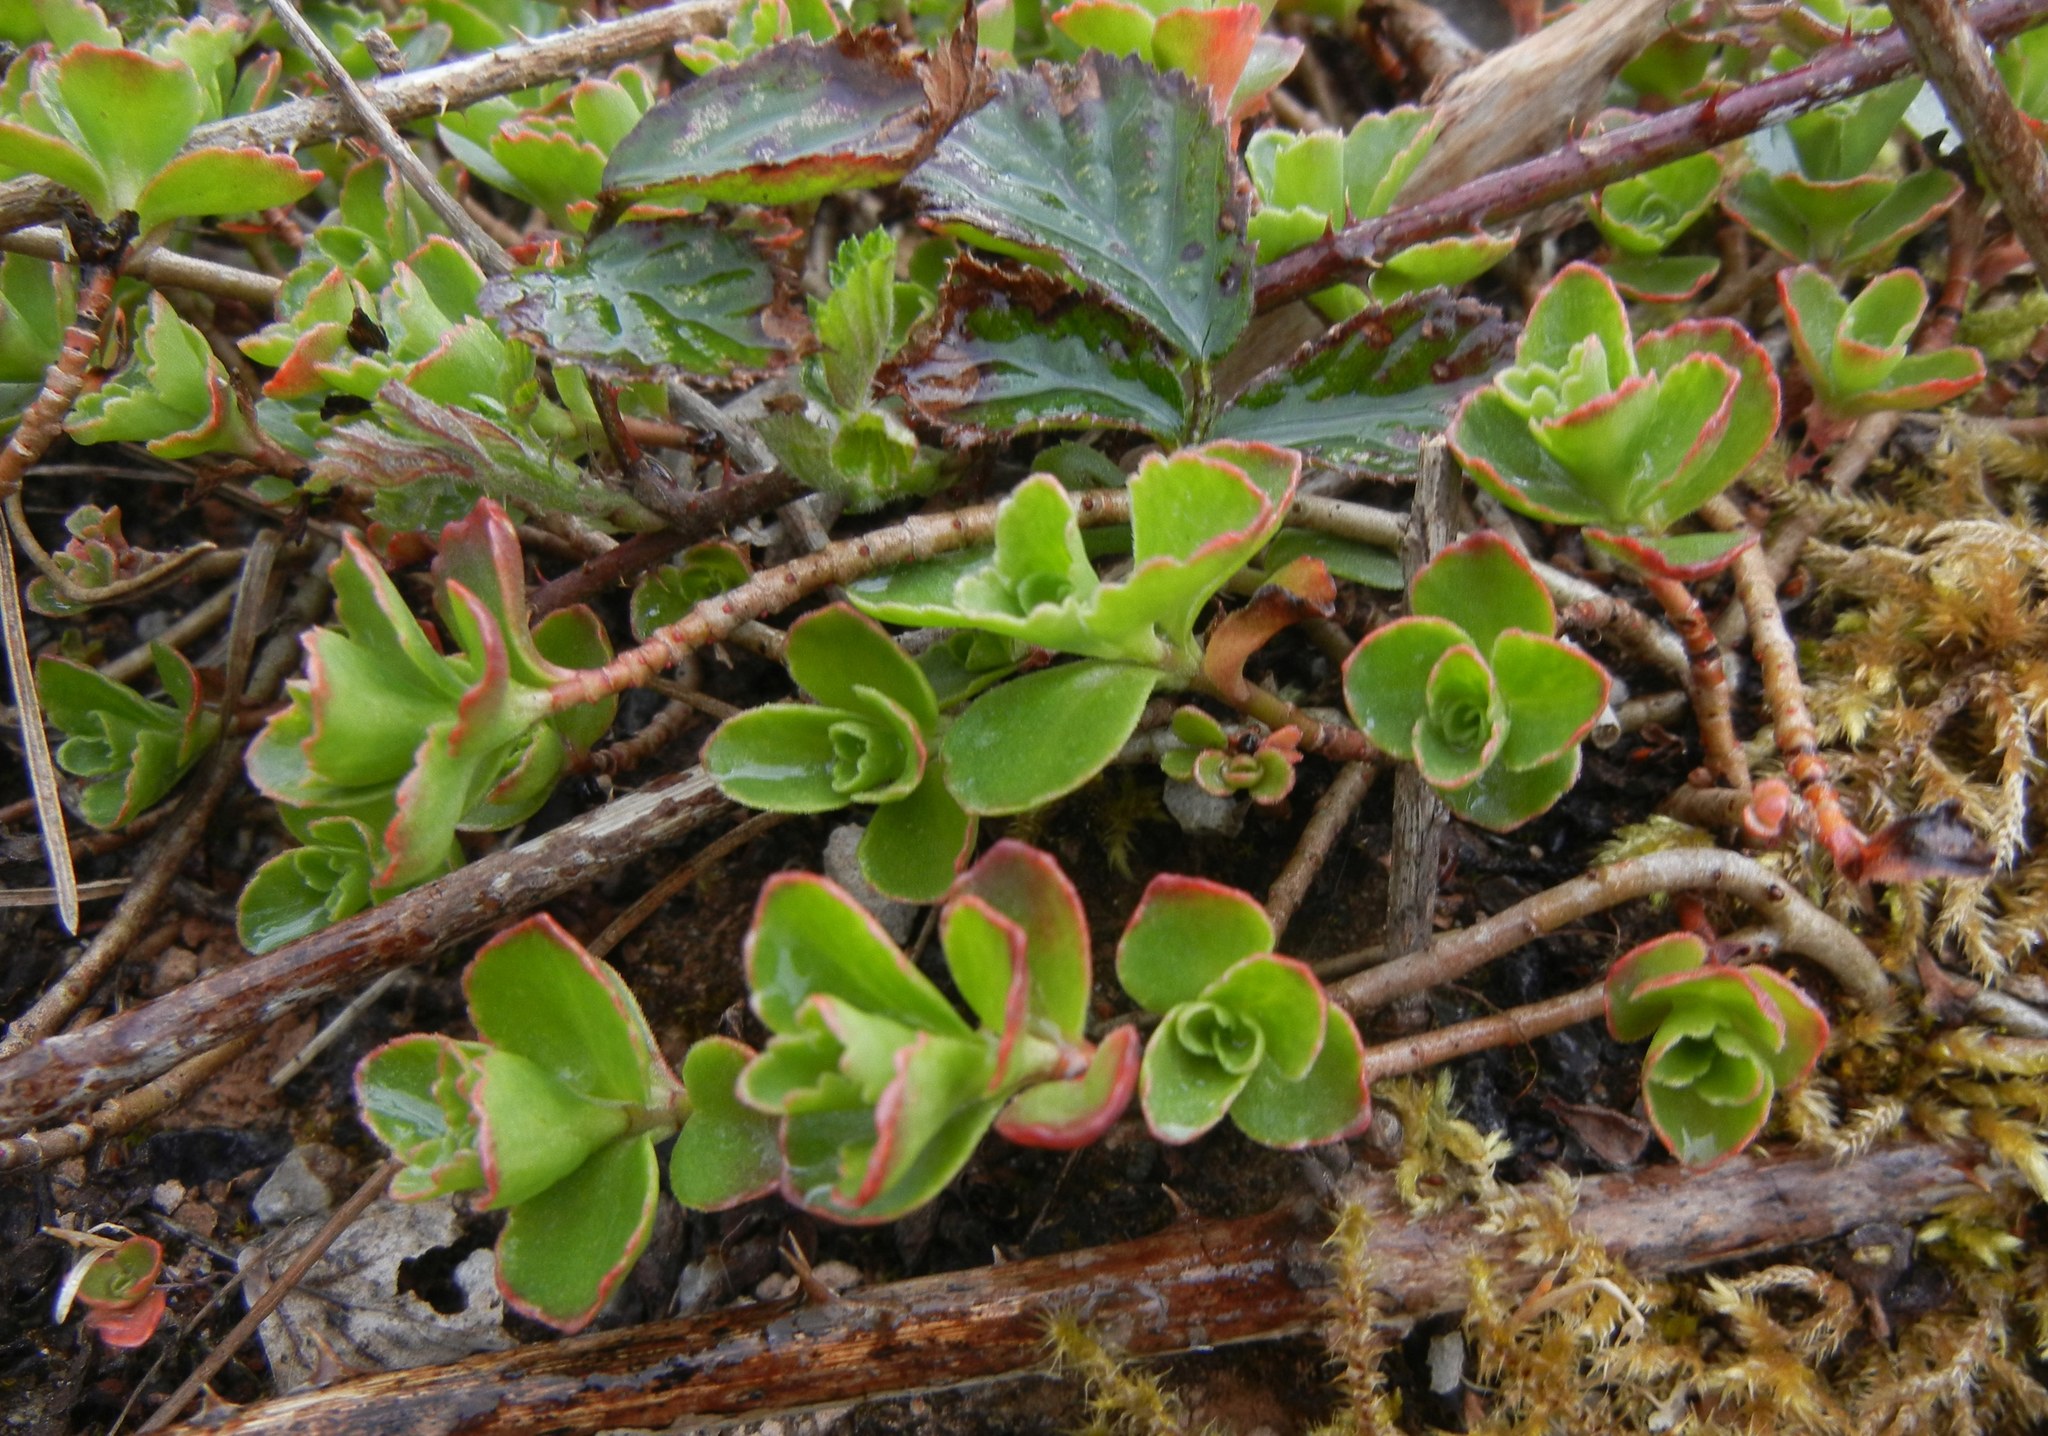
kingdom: Plantae
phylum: Tracheophyta
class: Magnoliopsida
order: Saxifragales
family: Crassulaceae
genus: Phedimus
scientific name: Phedimus spurius
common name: Caucasian stonecrop
